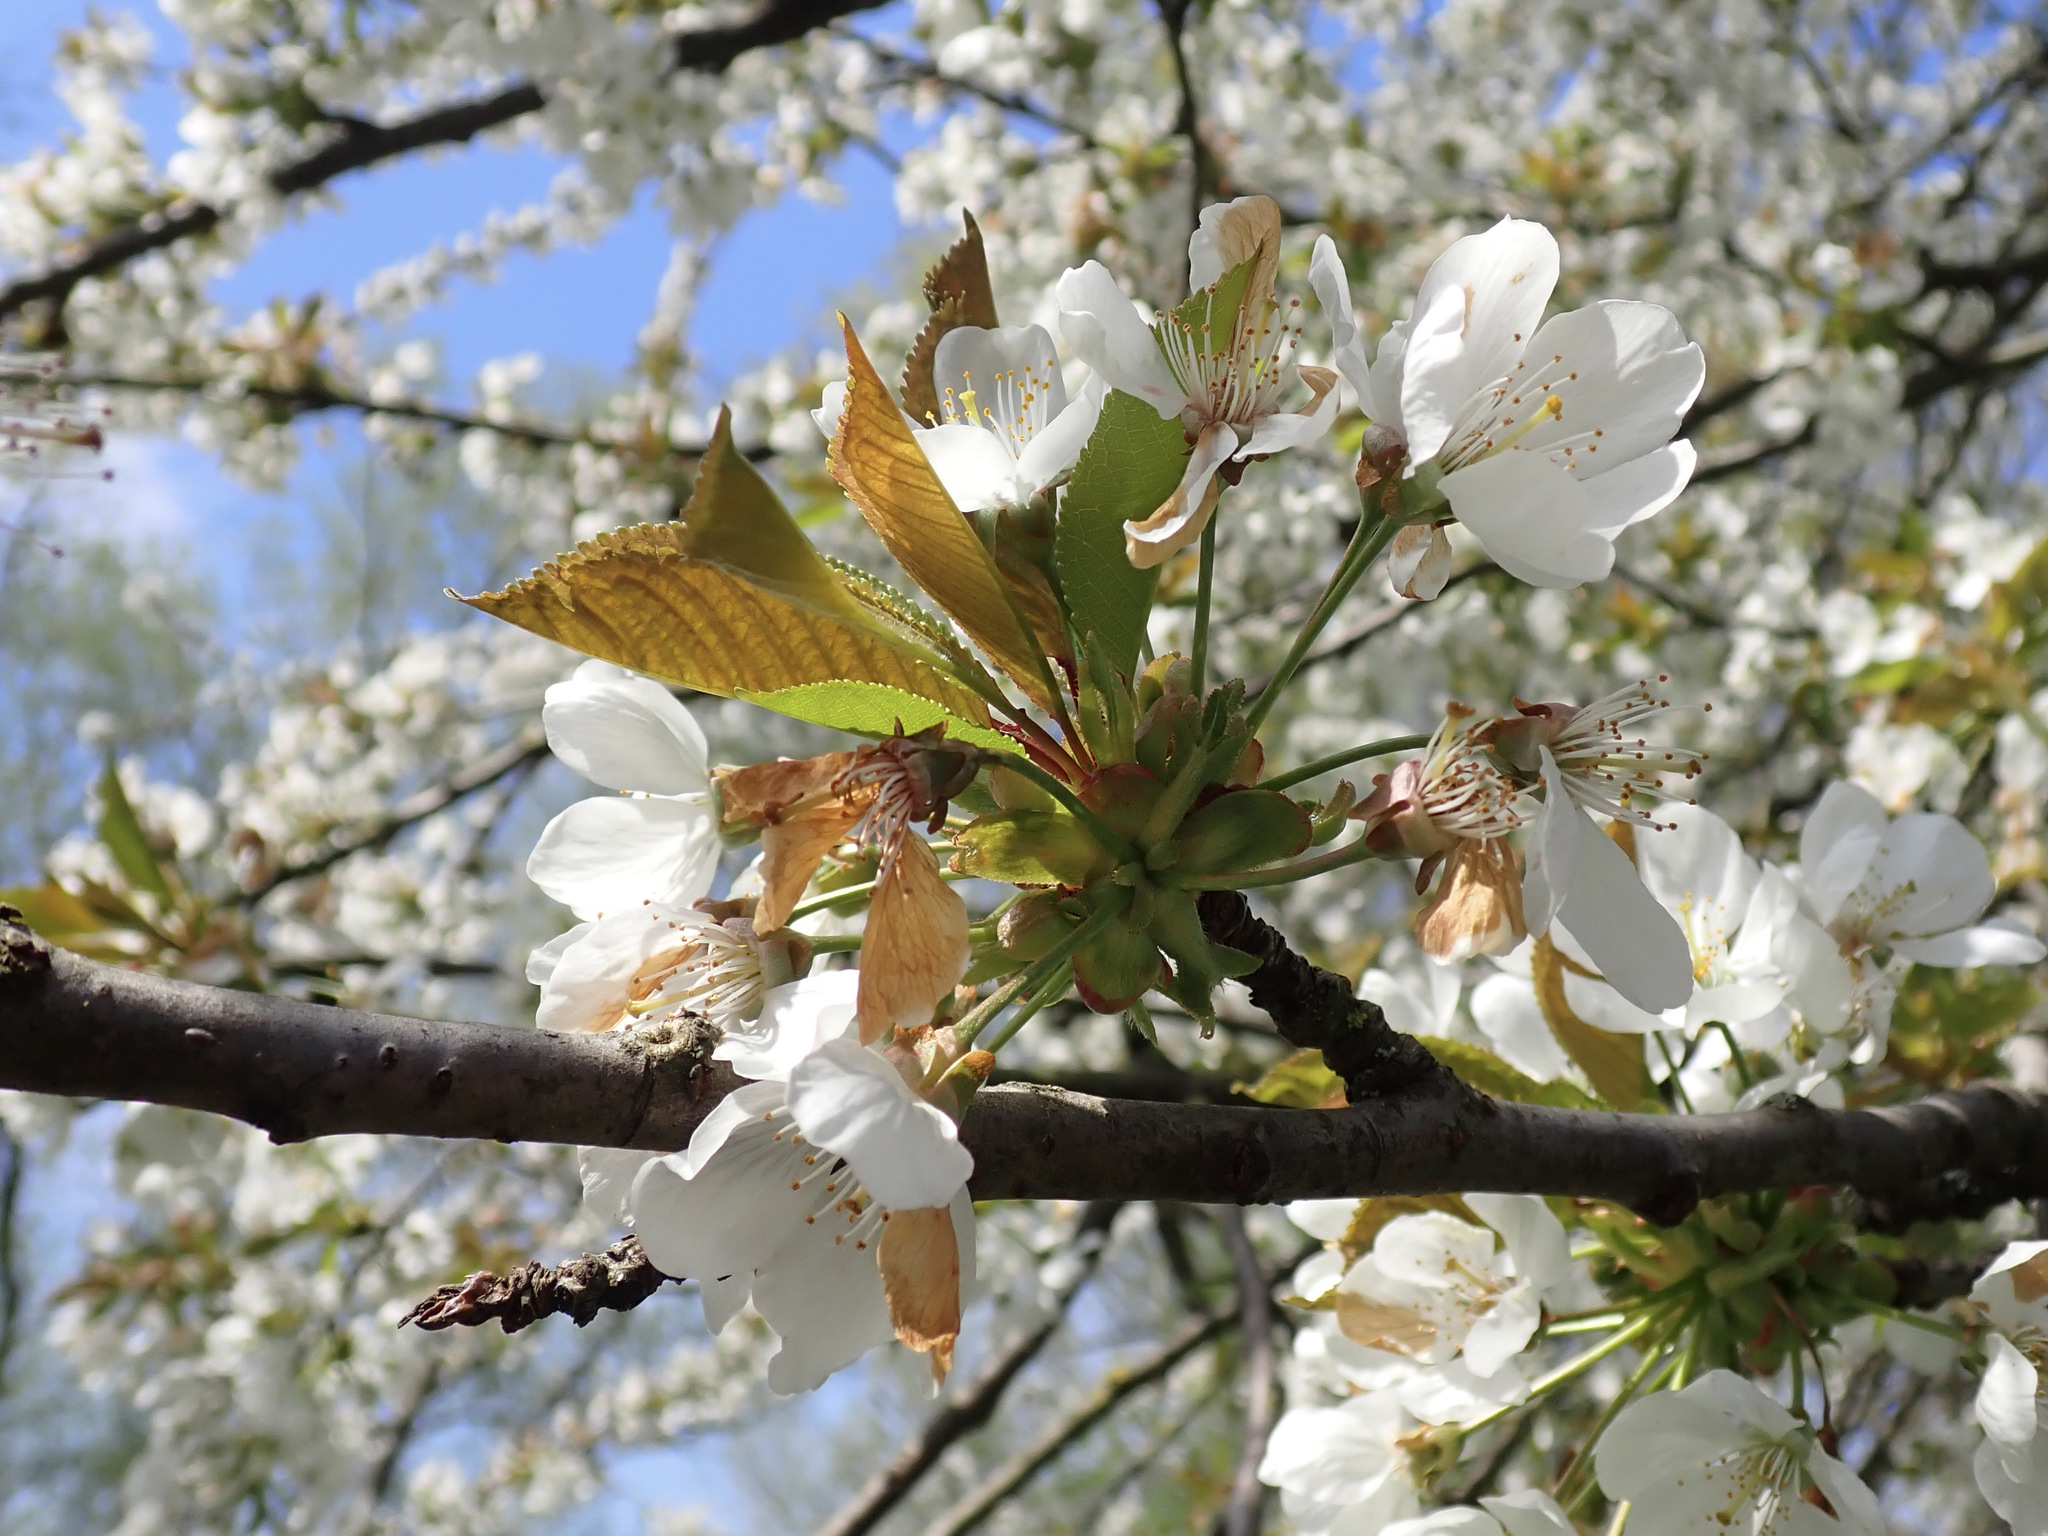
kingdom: Plantae
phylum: Tracheophyta
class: Magnoliopsida
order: Rosales
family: Rosaceae
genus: Prunus
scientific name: Prunus avium
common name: Sweet cherry
